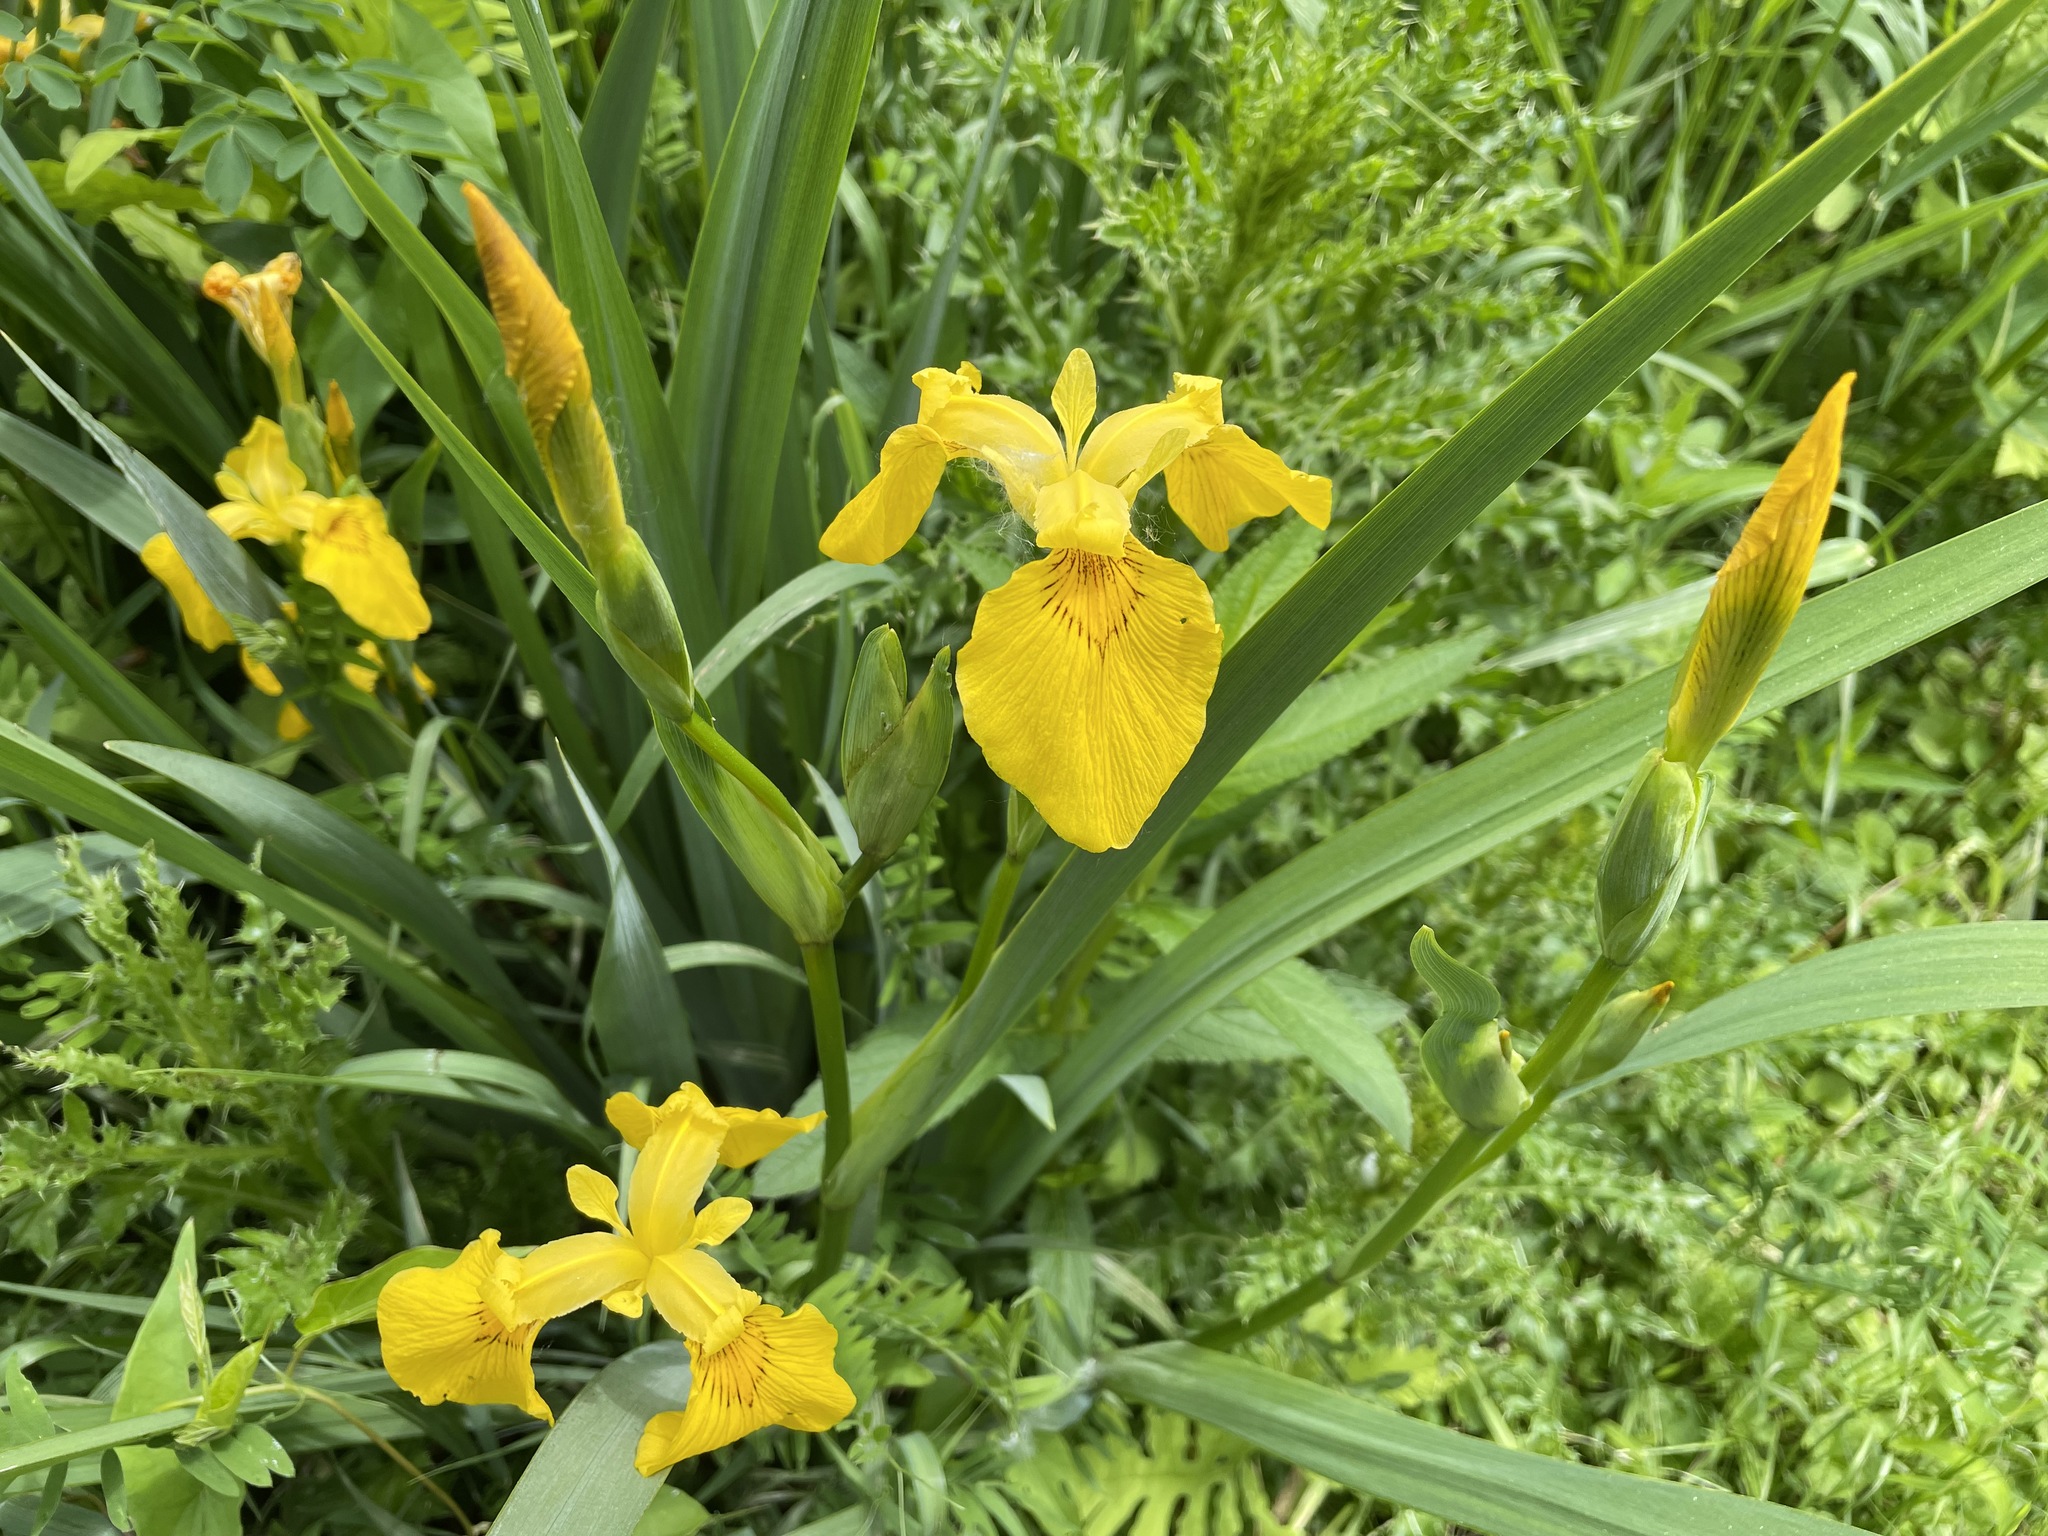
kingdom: Plantae
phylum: Tracheophyta
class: Liliopsida
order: Asparagales
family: Iridaceae
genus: Iris
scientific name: Iris pseudacorus
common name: Yellow flag
